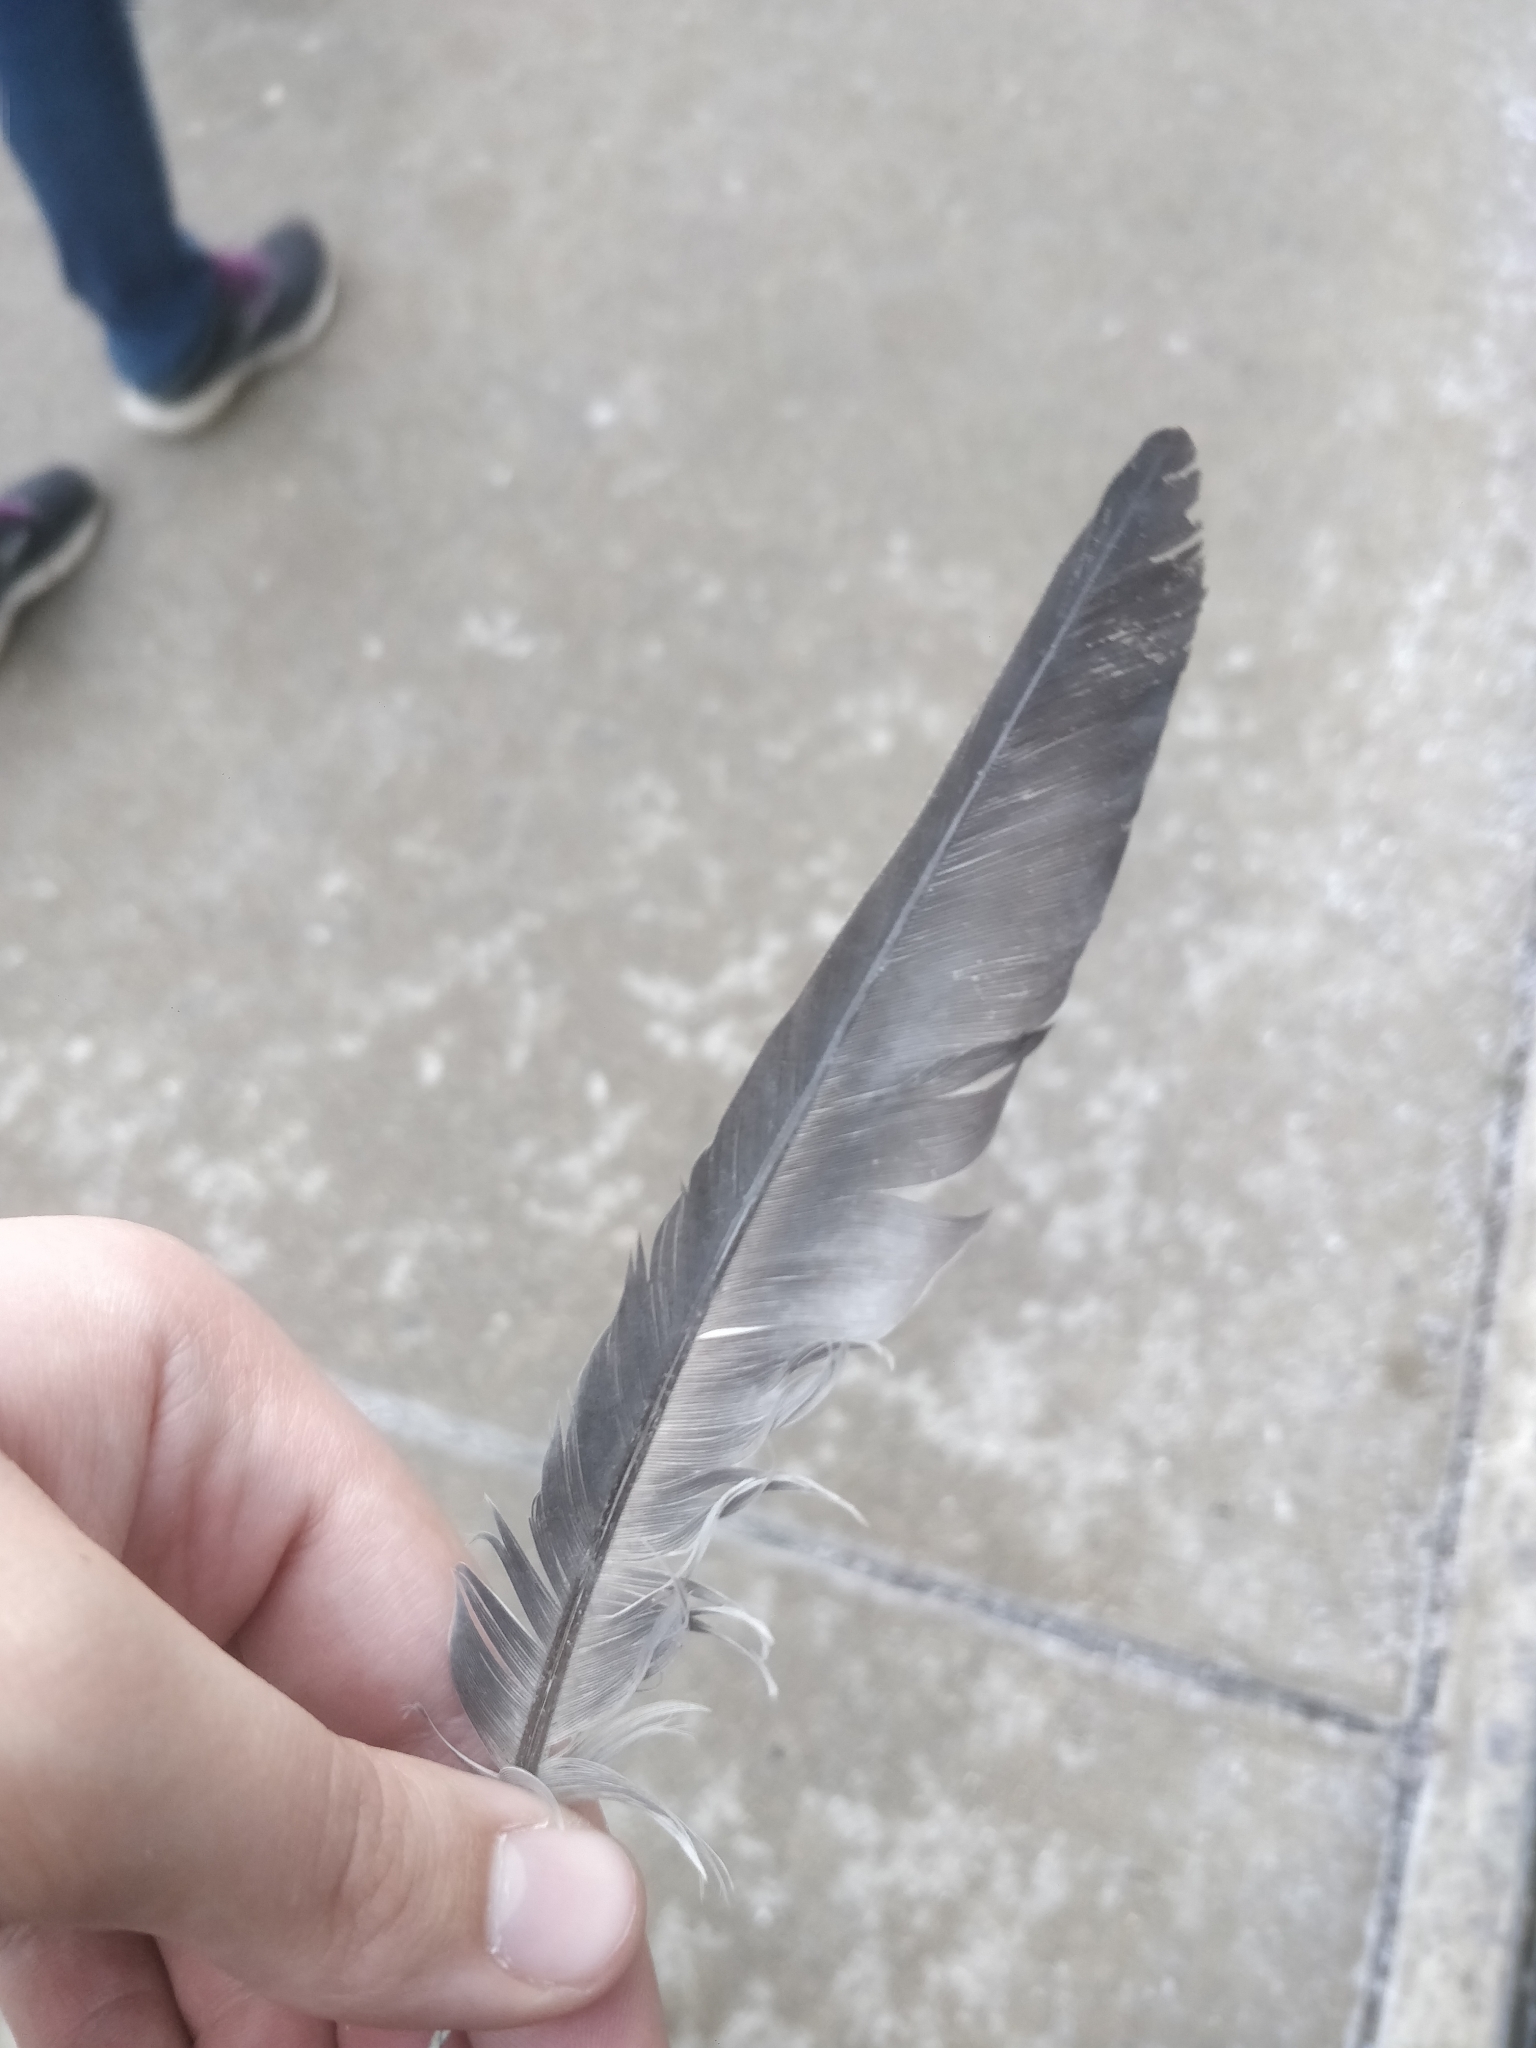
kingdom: Animalia
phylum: Chordata
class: Aves
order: Columbiformes
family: Columbidae
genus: Columba
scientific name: Columba livia
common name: Rock pigeon
